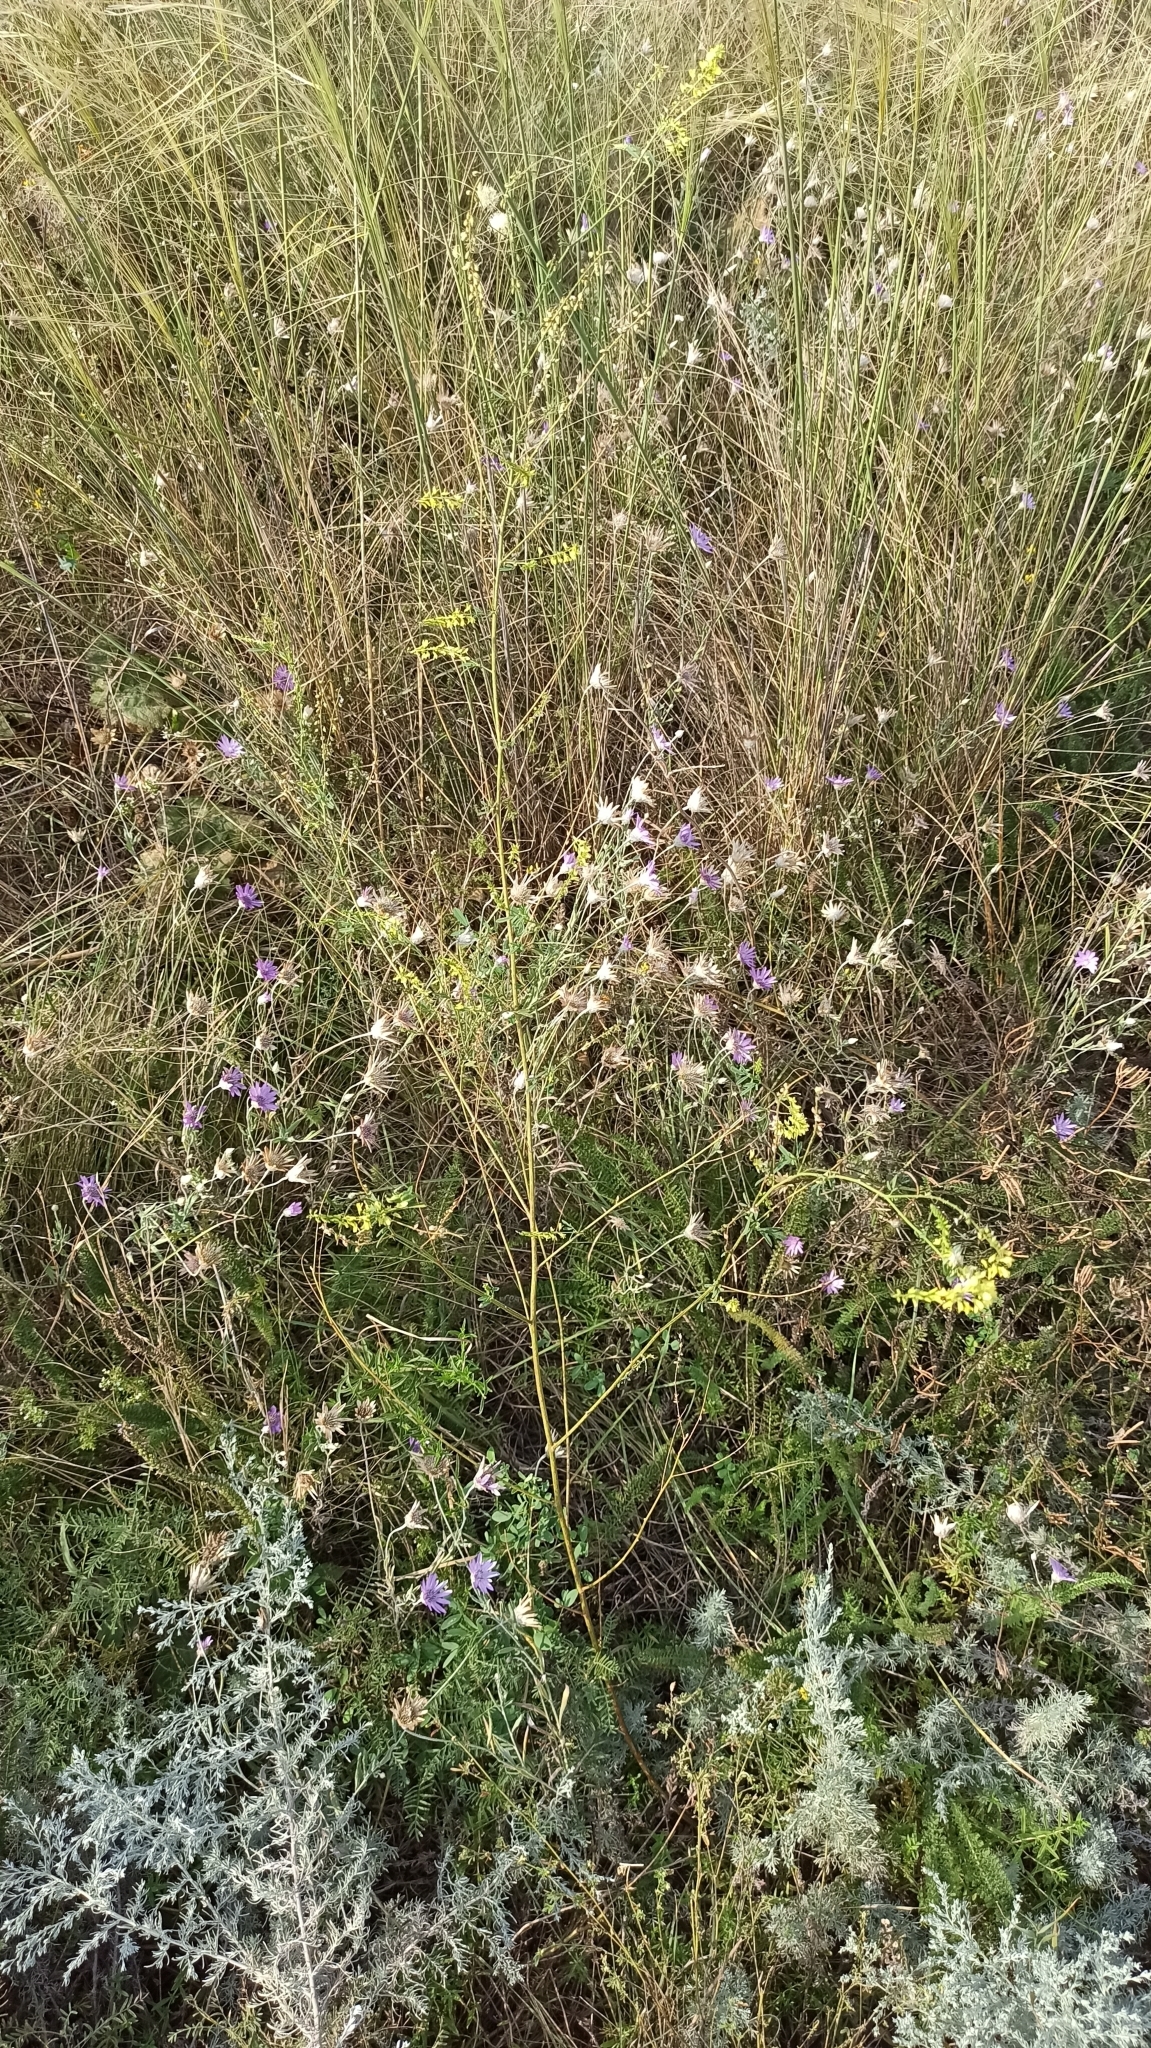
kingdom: Plantae
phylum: Tracheophyta
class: Magnoliopsida
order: Fabales
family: Fabaceae
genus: Melilotus
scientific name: Melilotus officinalis
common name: Sweetclover
